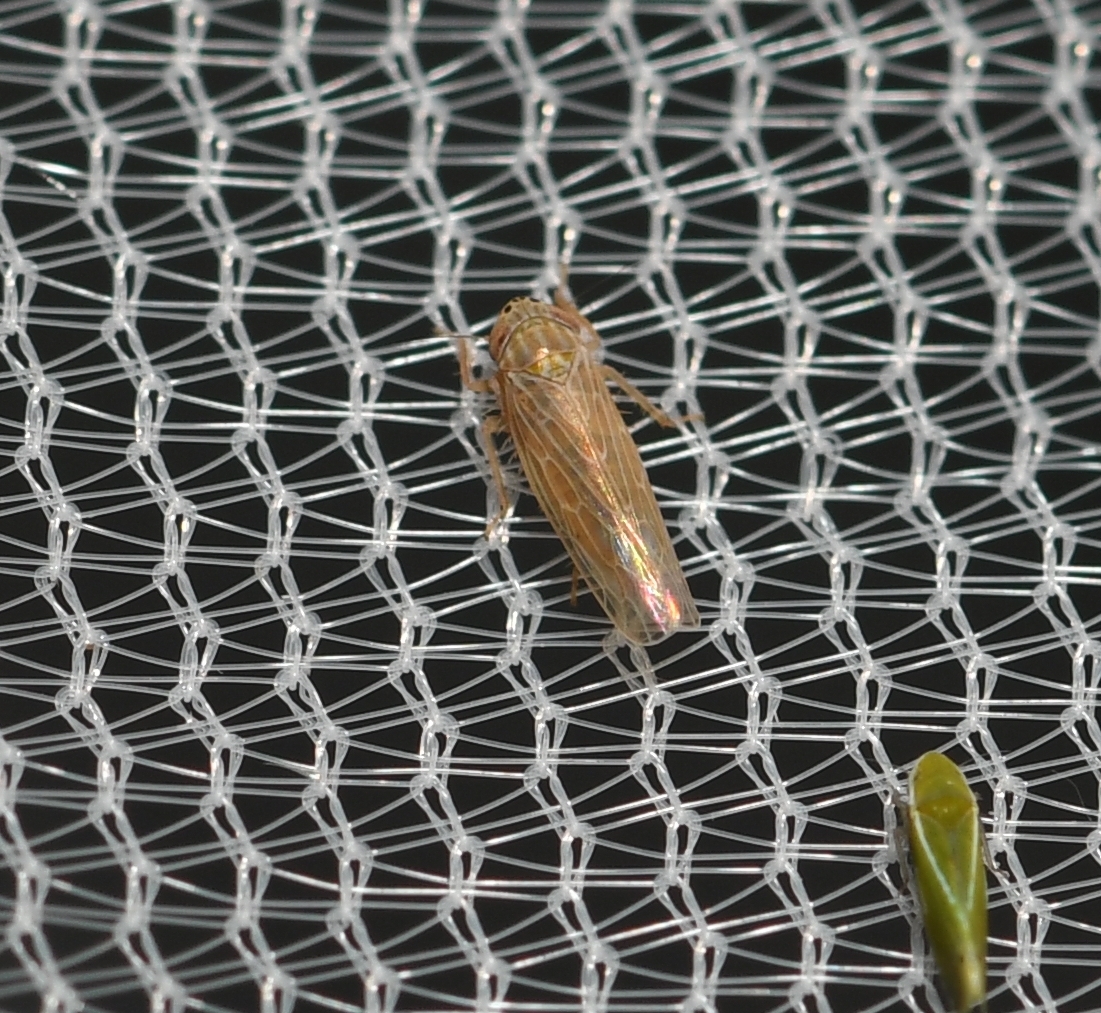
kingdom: Animalia
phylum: Arthropoda
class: Insecta
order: Hemiptera
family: Cicadellidae
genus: Graminella
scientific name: Graminella sonora
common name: Lesser lawn leafhopper
